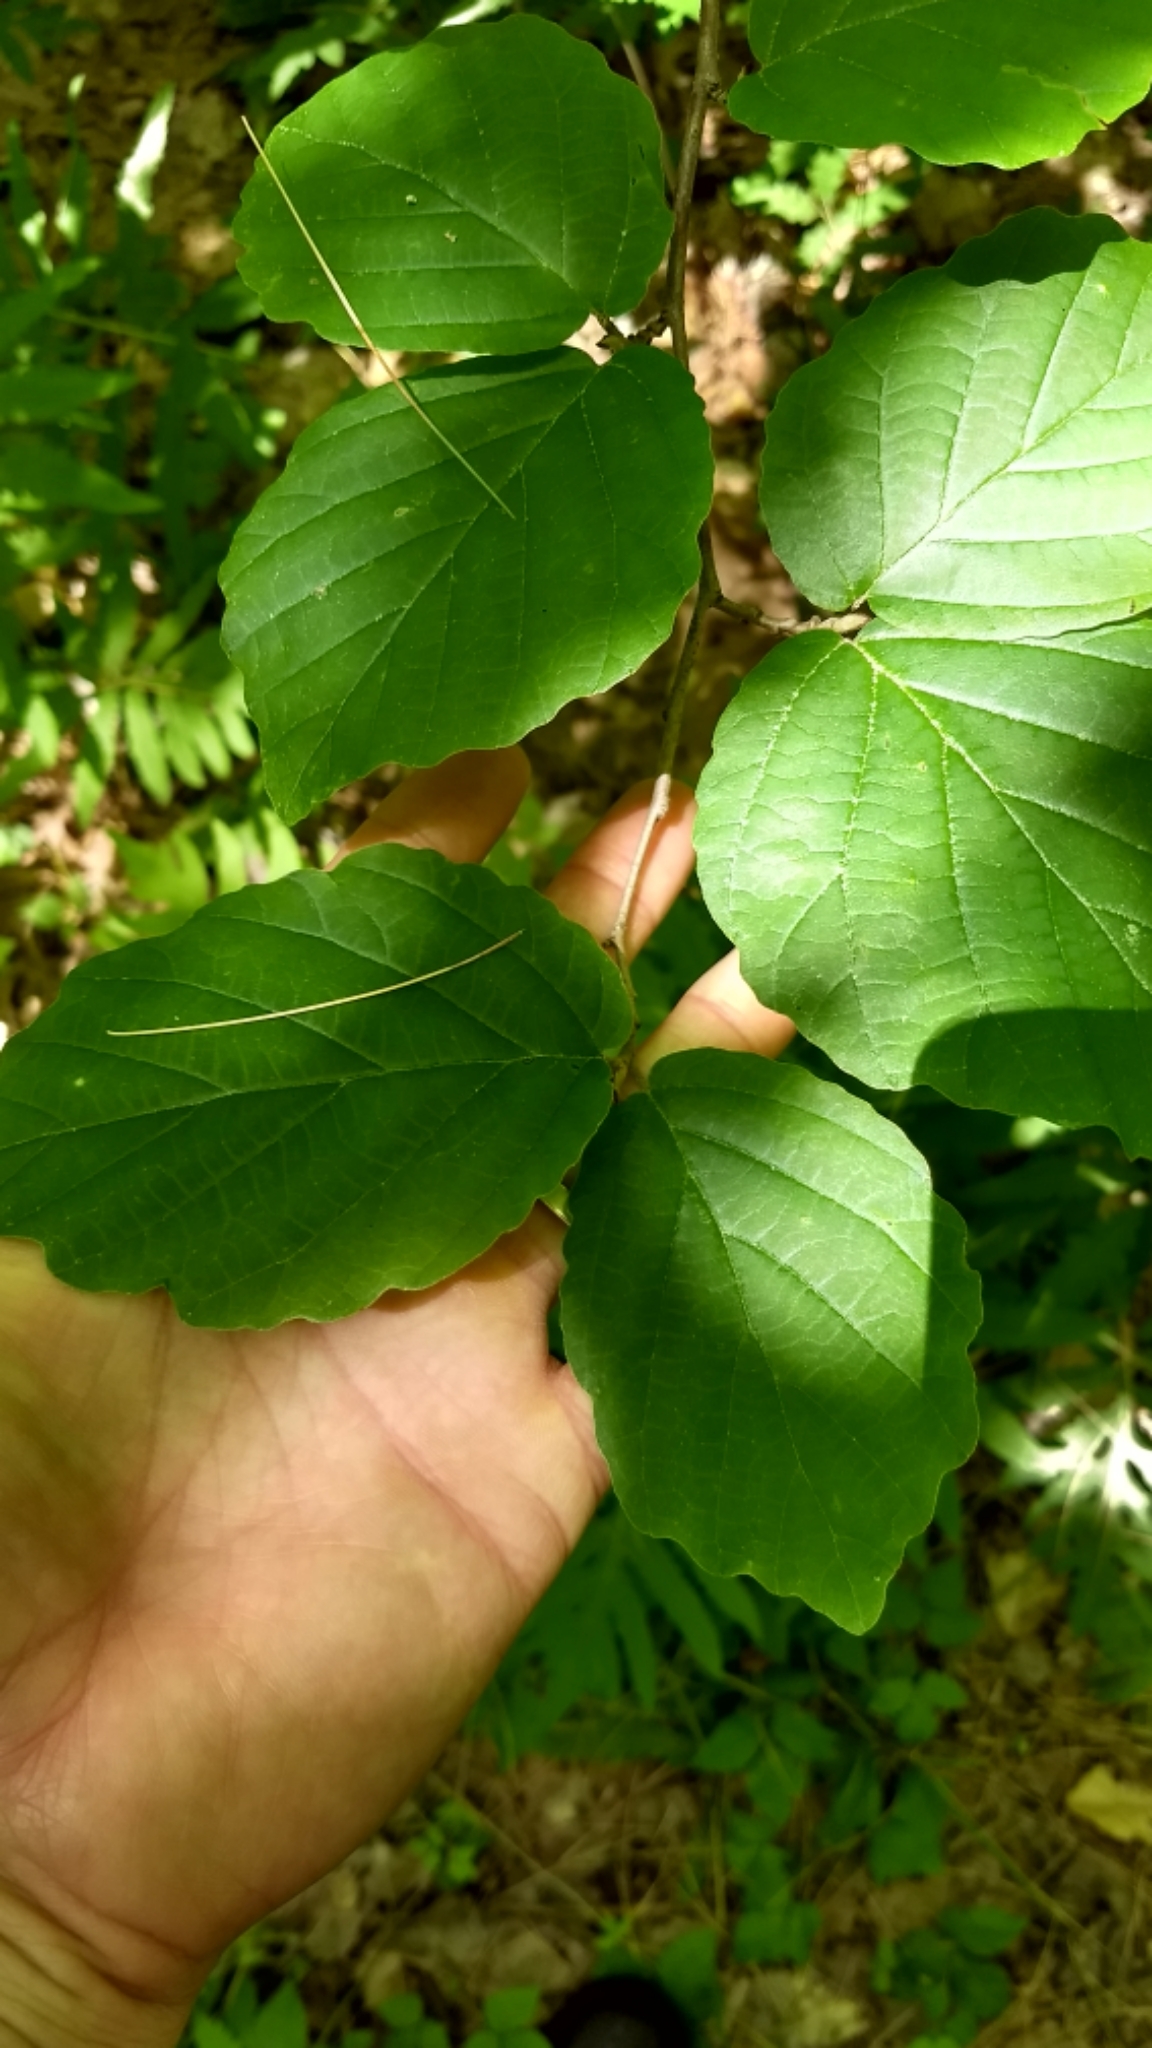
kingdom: Plantae
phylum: Tracheophyta
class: Magnoliopsida
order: Saxifragales
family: Hamamelidaceae
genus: Hamamelis
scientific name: Hamamelis virginiana
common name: Witch-hazel
